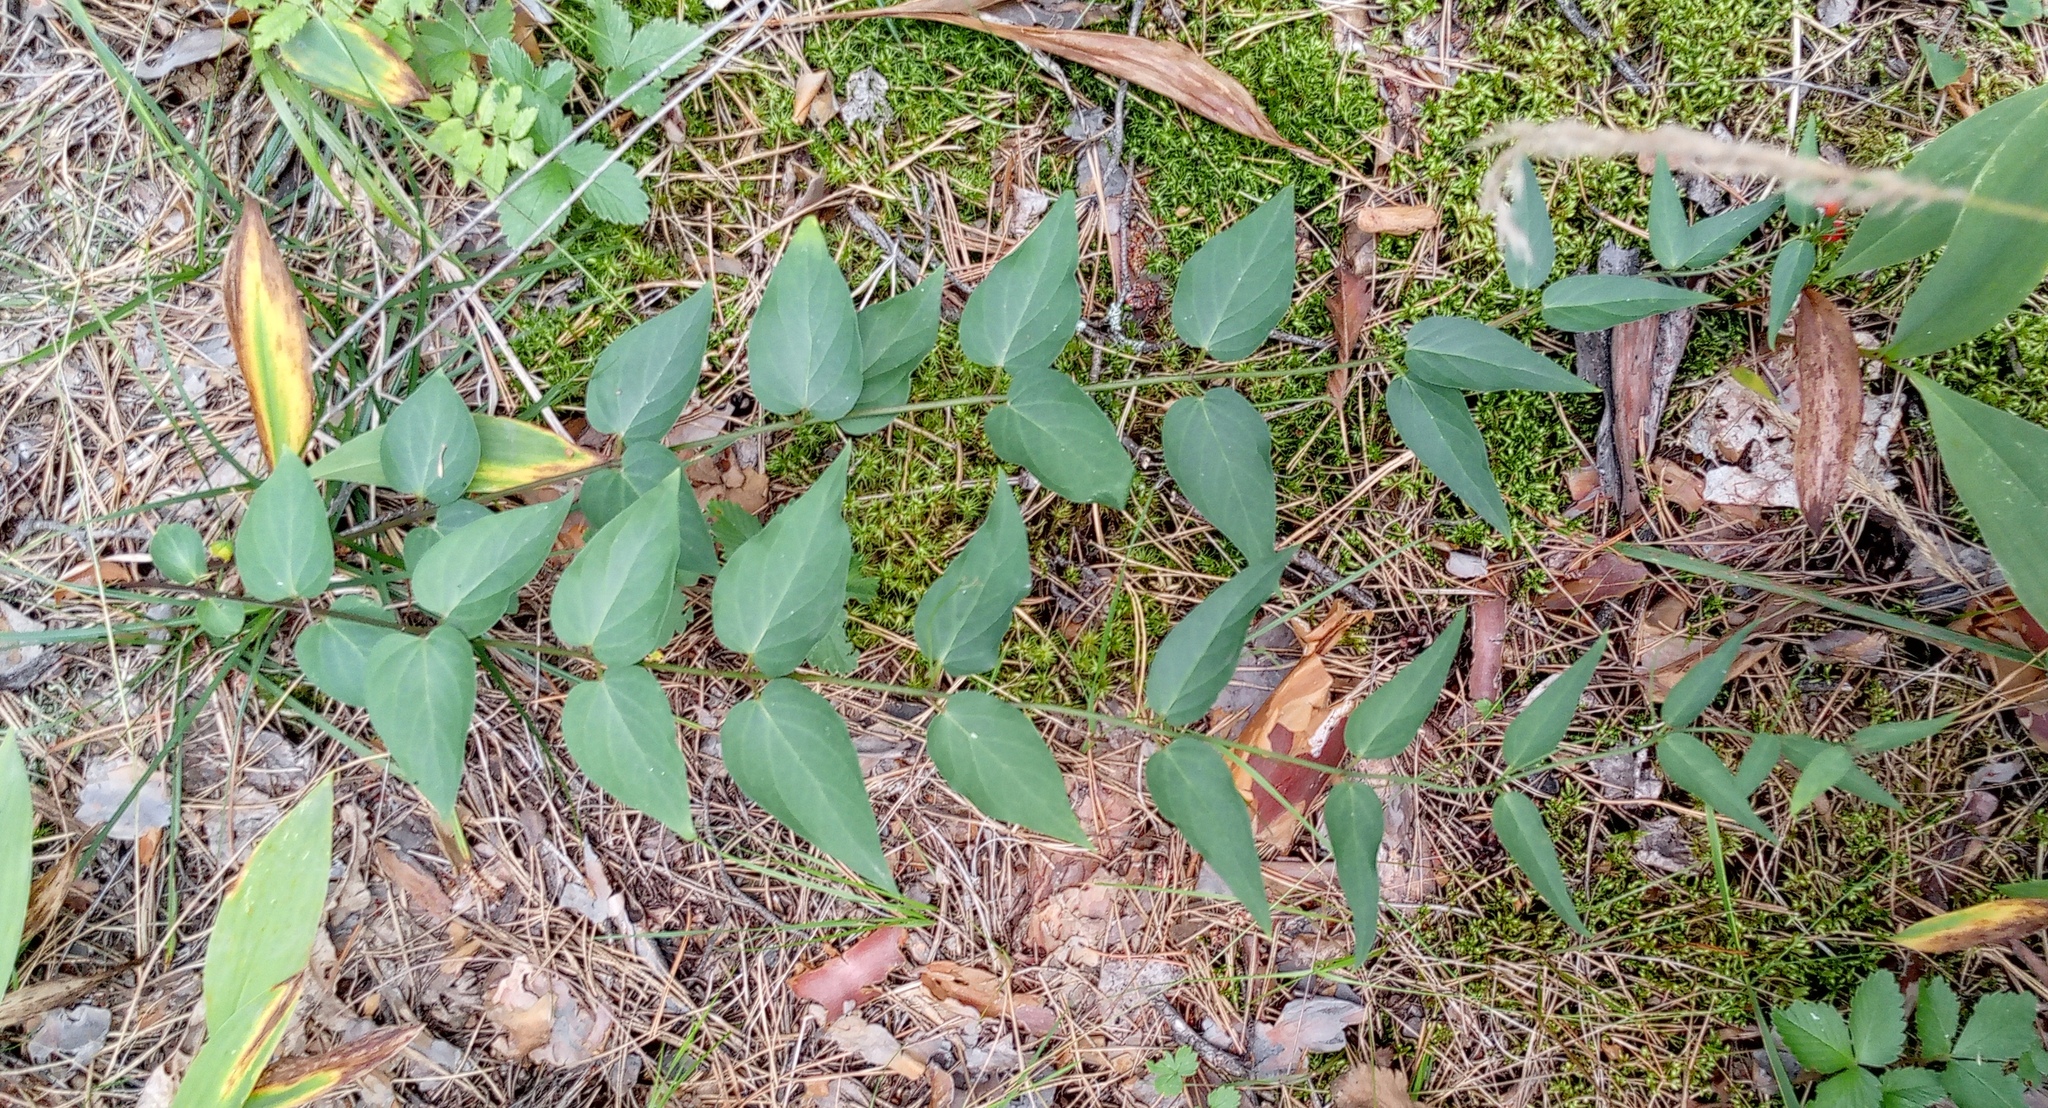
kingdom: Plantae
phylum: Tracheophyta
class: Magnoliopsida
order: Gentianales
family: Apocynaceae
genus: Vincetoxicum
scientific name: Vincetoxicum hirundinaria
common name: White swallowwort
